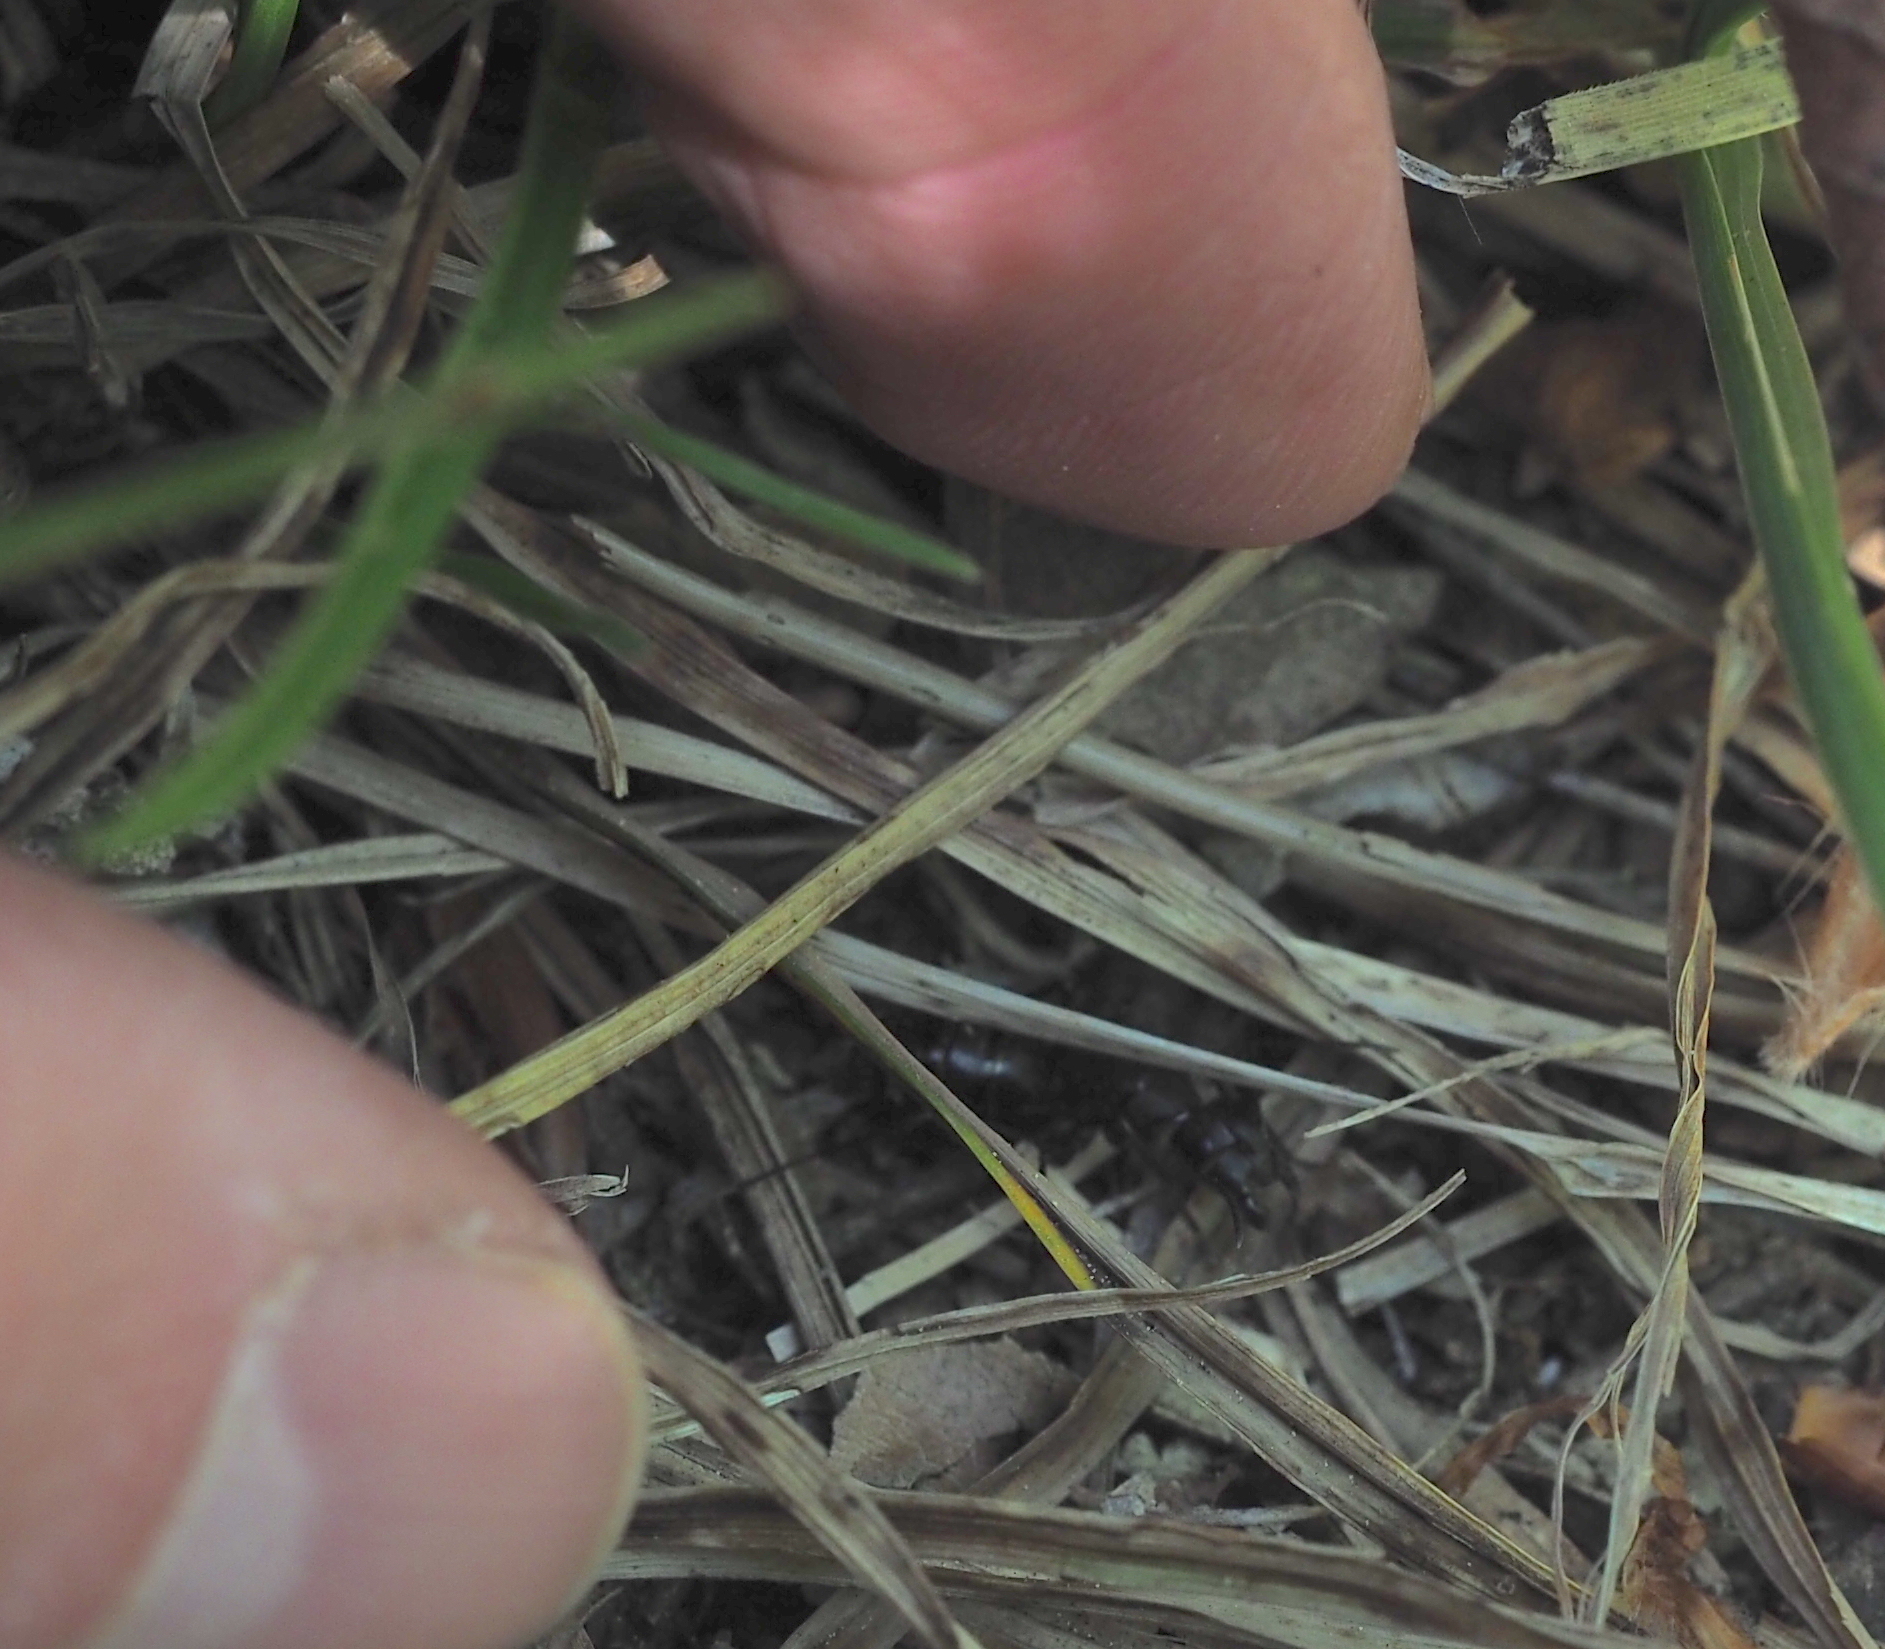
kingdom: Animalia
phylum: Arthropoda
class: Insecta
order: Hymenoptera
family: Formicidae
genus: Camponotus
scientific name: Camponotus herculeanus
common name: Hercules ant
